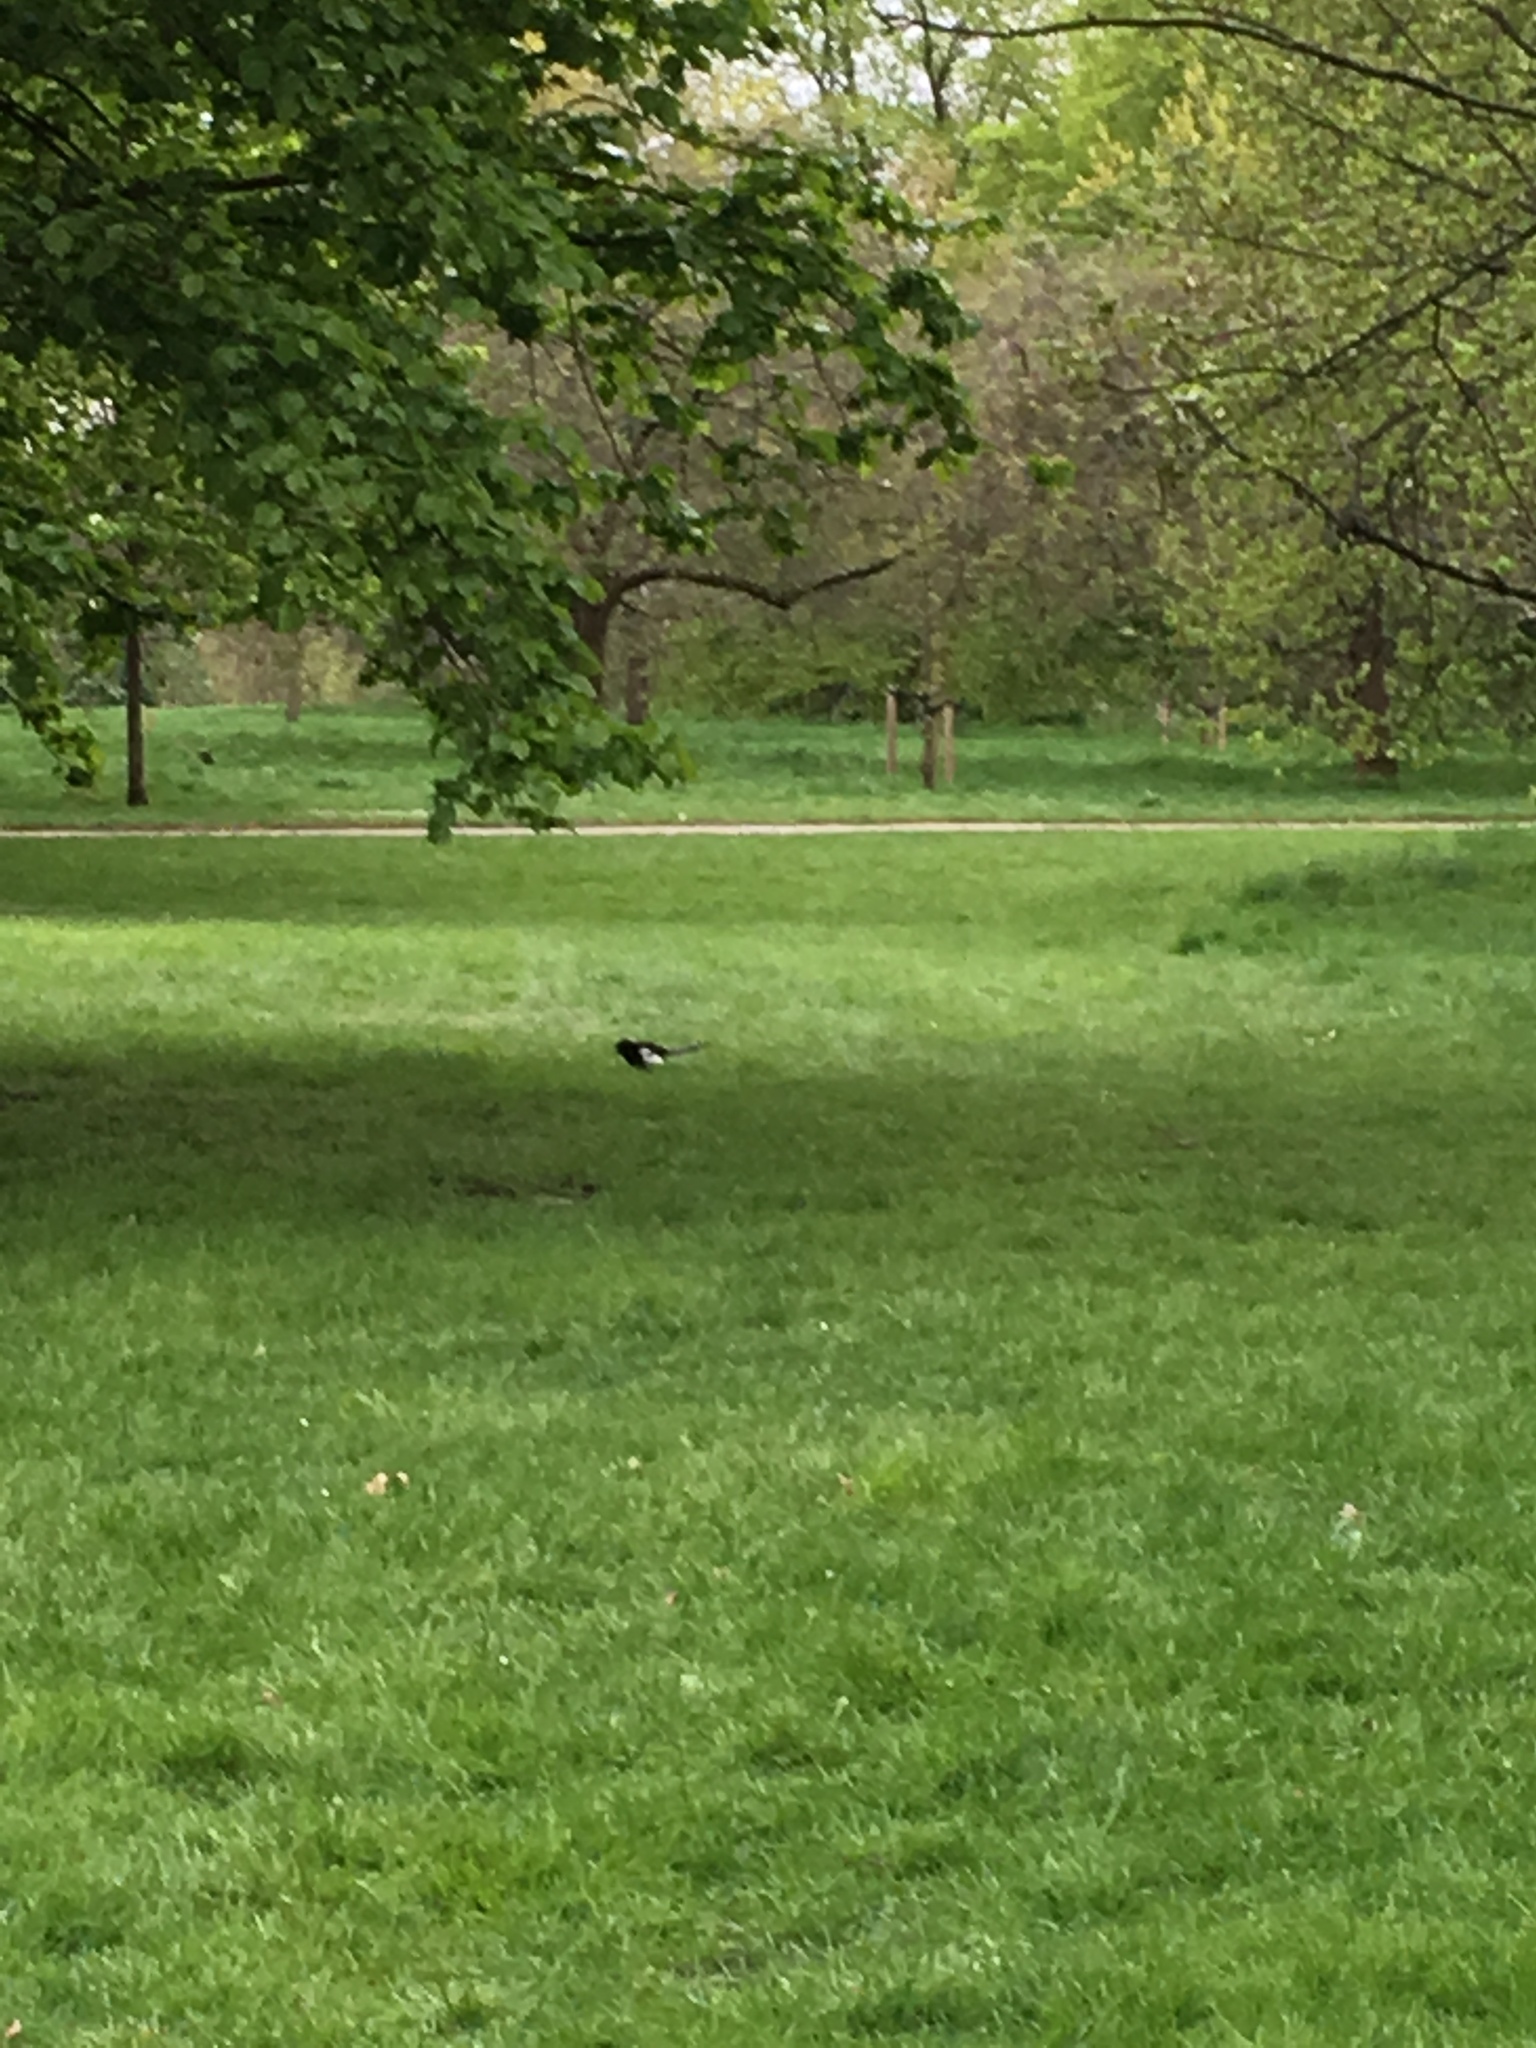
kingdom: Animalia
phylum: Chordata
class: Aves
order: Passeriformes
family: Corvidae
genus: Pica
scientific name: Pica pica
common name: Eurasian magpie
